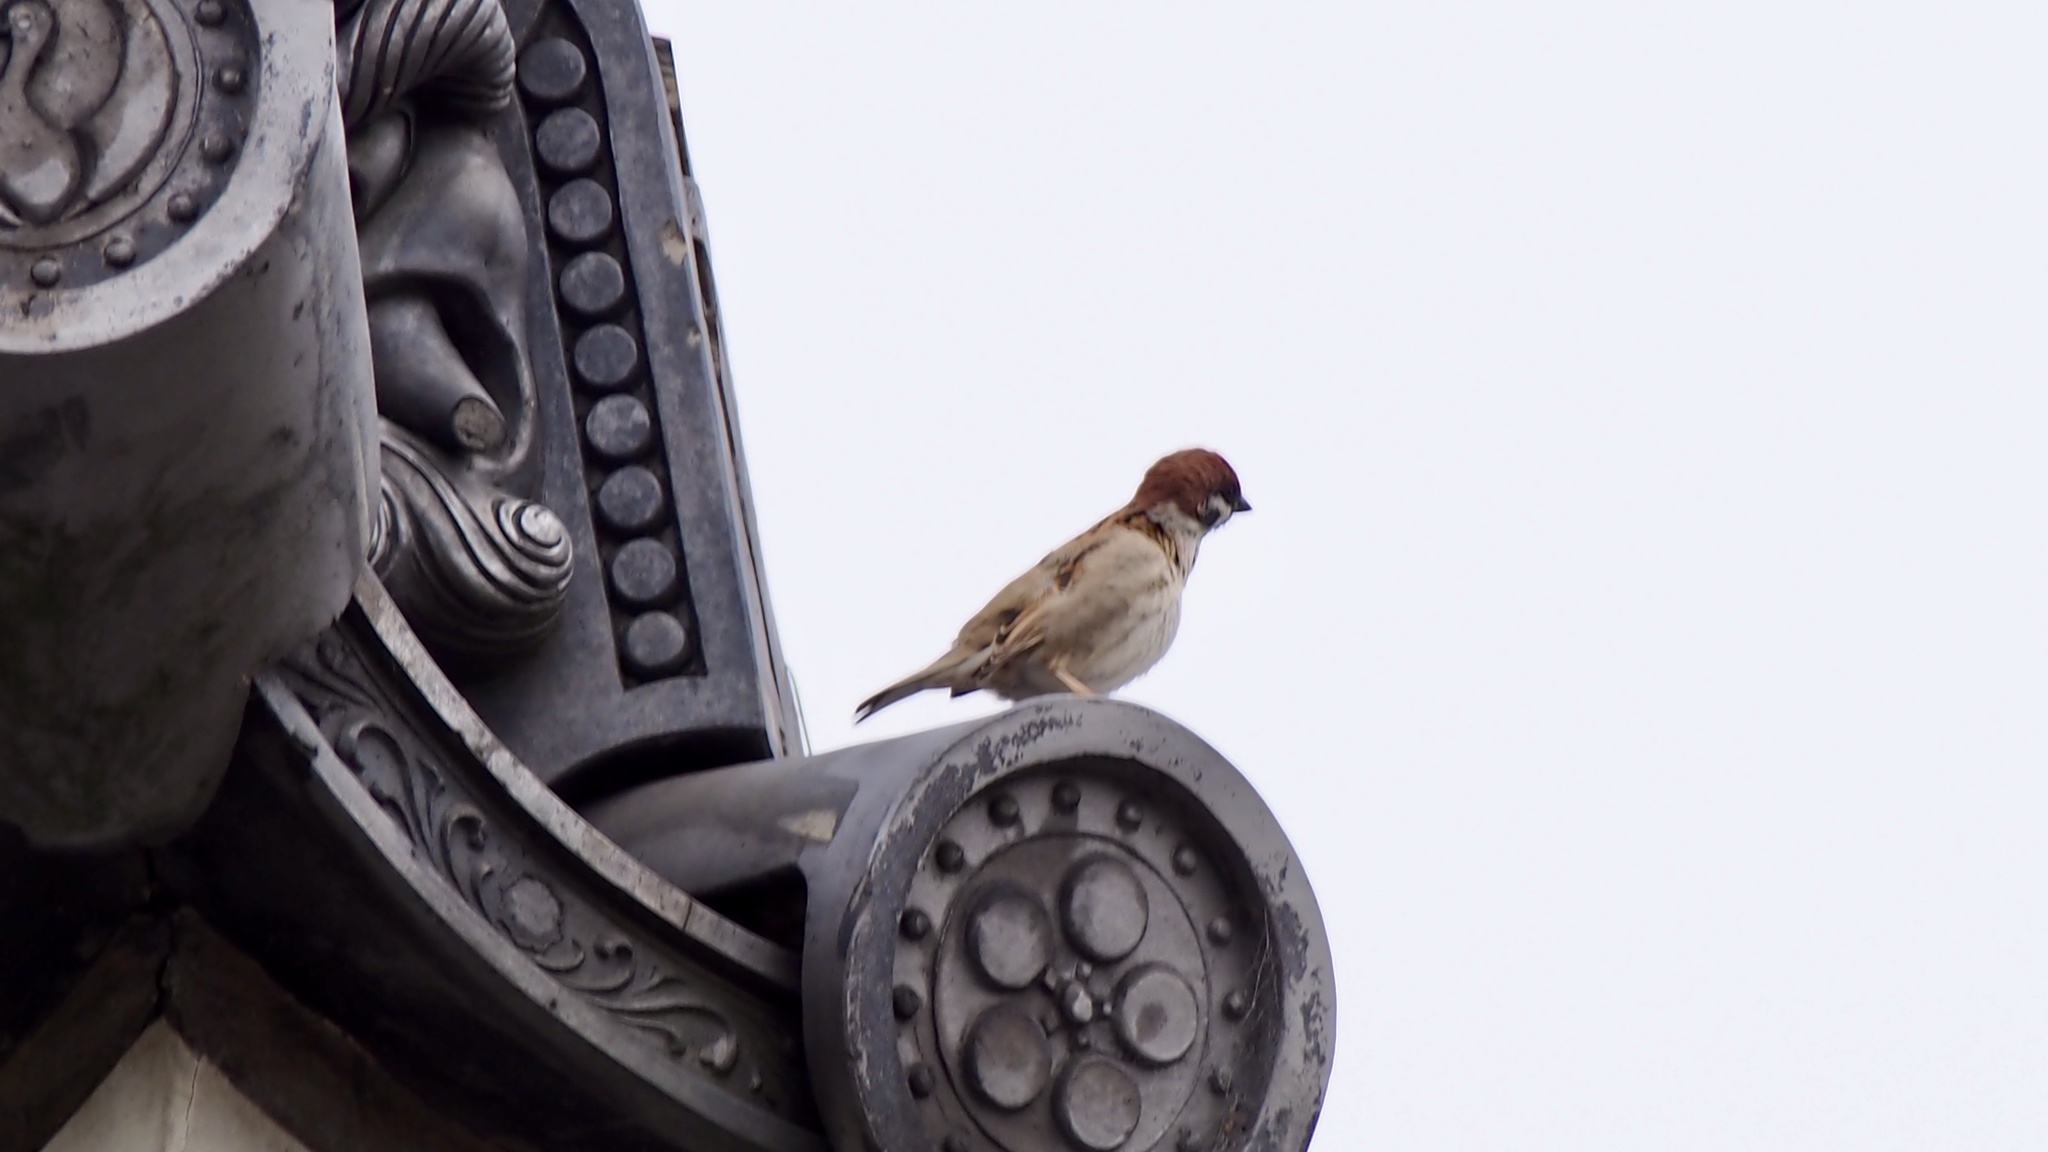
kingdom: Animalia
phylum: Chordata
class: Aves
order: Passeriformes
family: Passeridae
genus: Passer
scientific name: Passer montanus
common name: Eurasian tree sparrow
